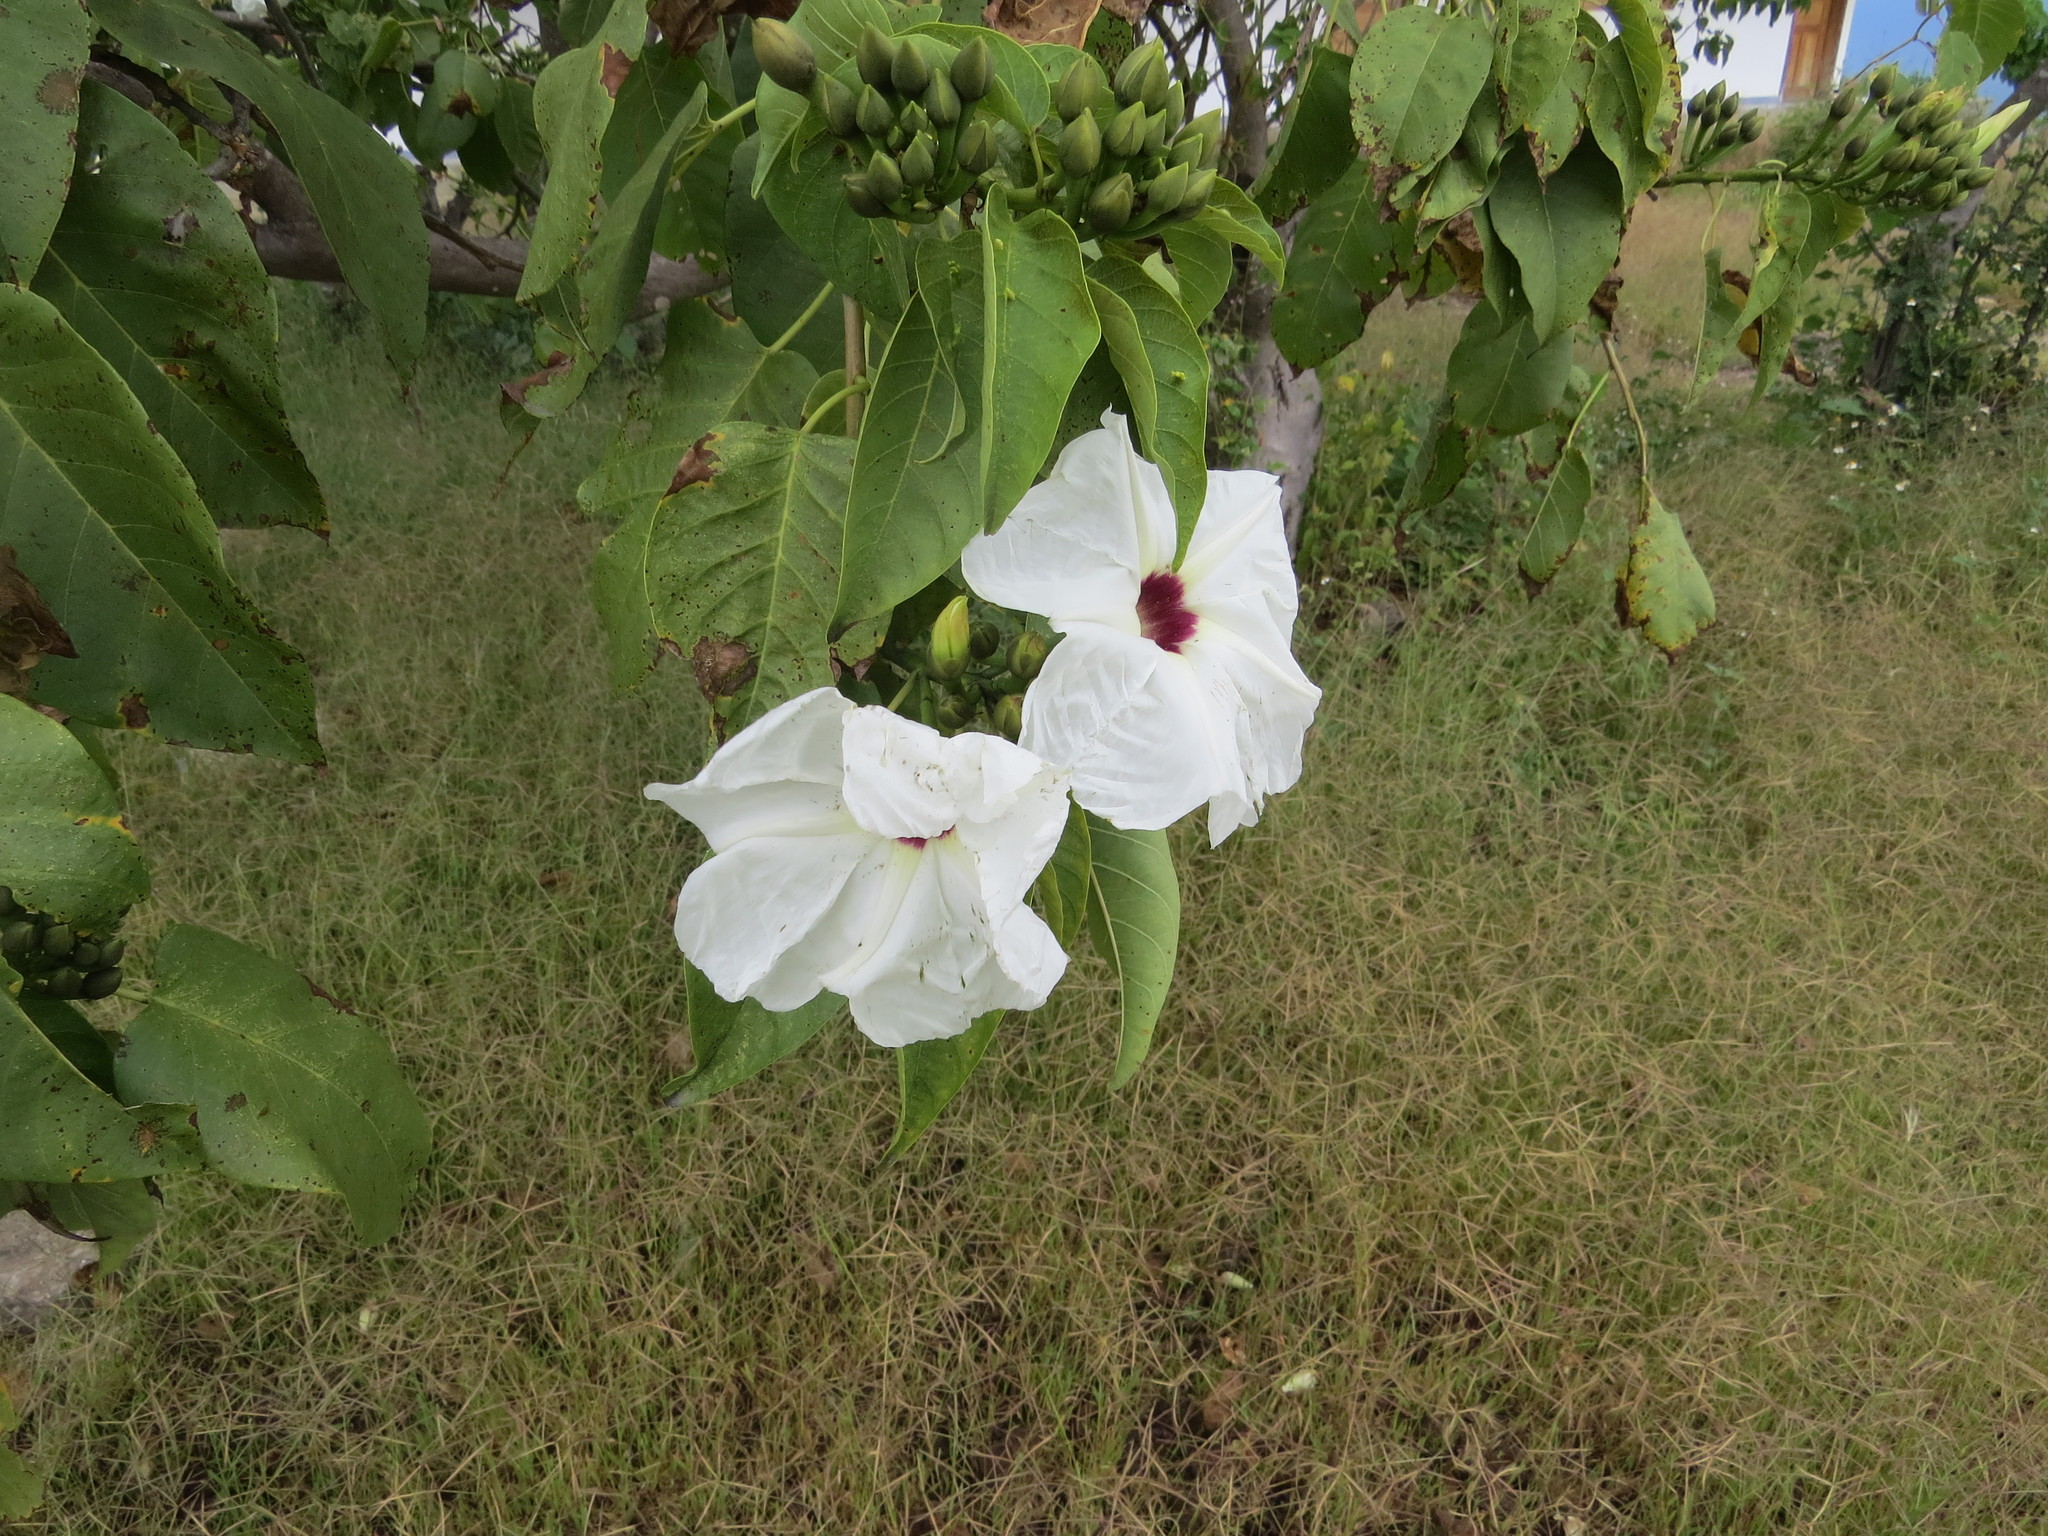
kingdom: Plantae
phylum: Tracheophyta
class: Magnoliopsida
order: Solanales
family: Convolvulaceae
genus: Ipomoea
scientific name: Ipomoea pauciflora
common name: Tree morningglory
